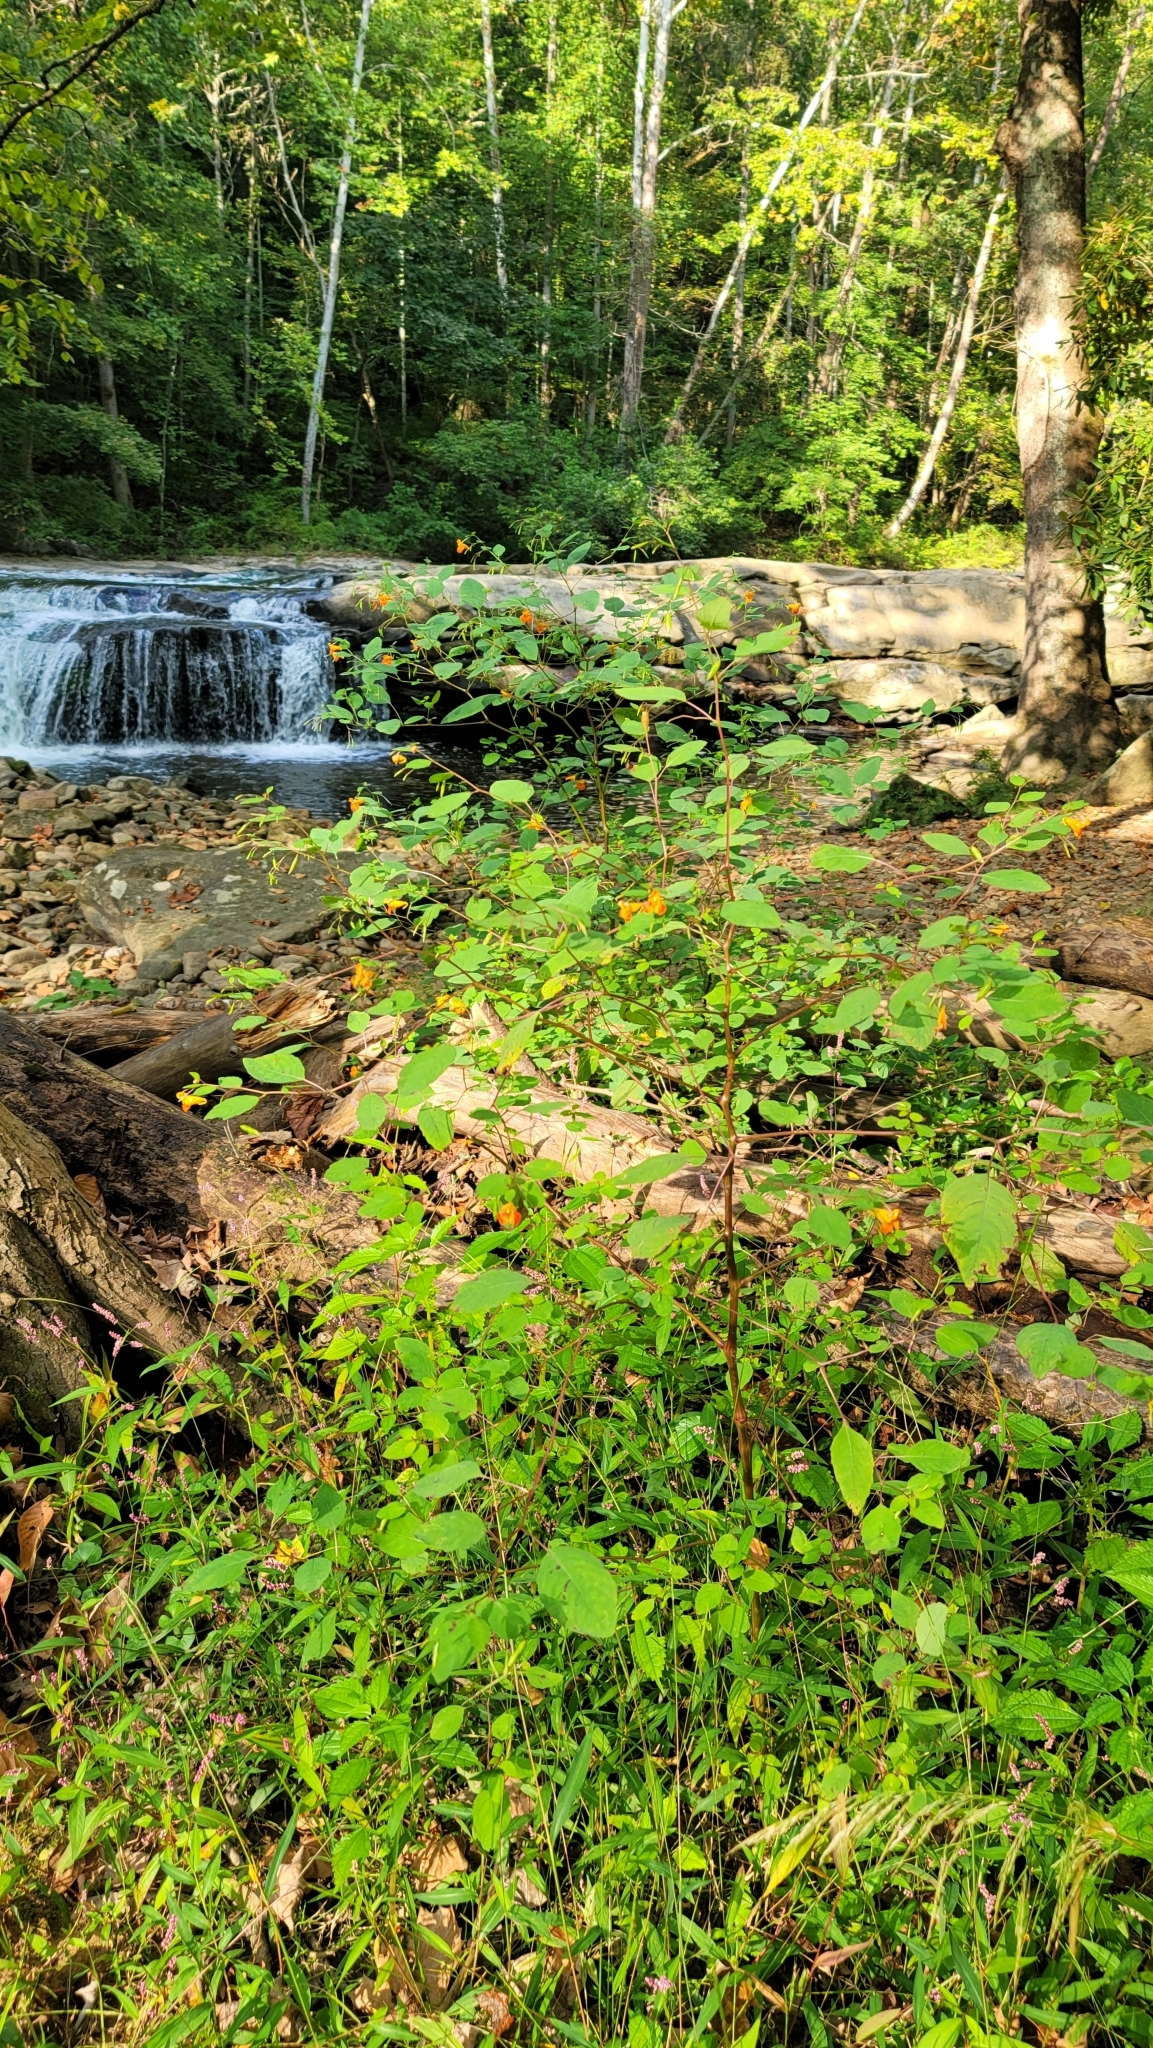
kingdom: Plantae
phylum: Tracheophyta
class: Magnoliopsida
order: Ericales
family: Balsaminaceae
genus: Impatiens
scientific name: Impatiens capensis
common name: Orange balsam
